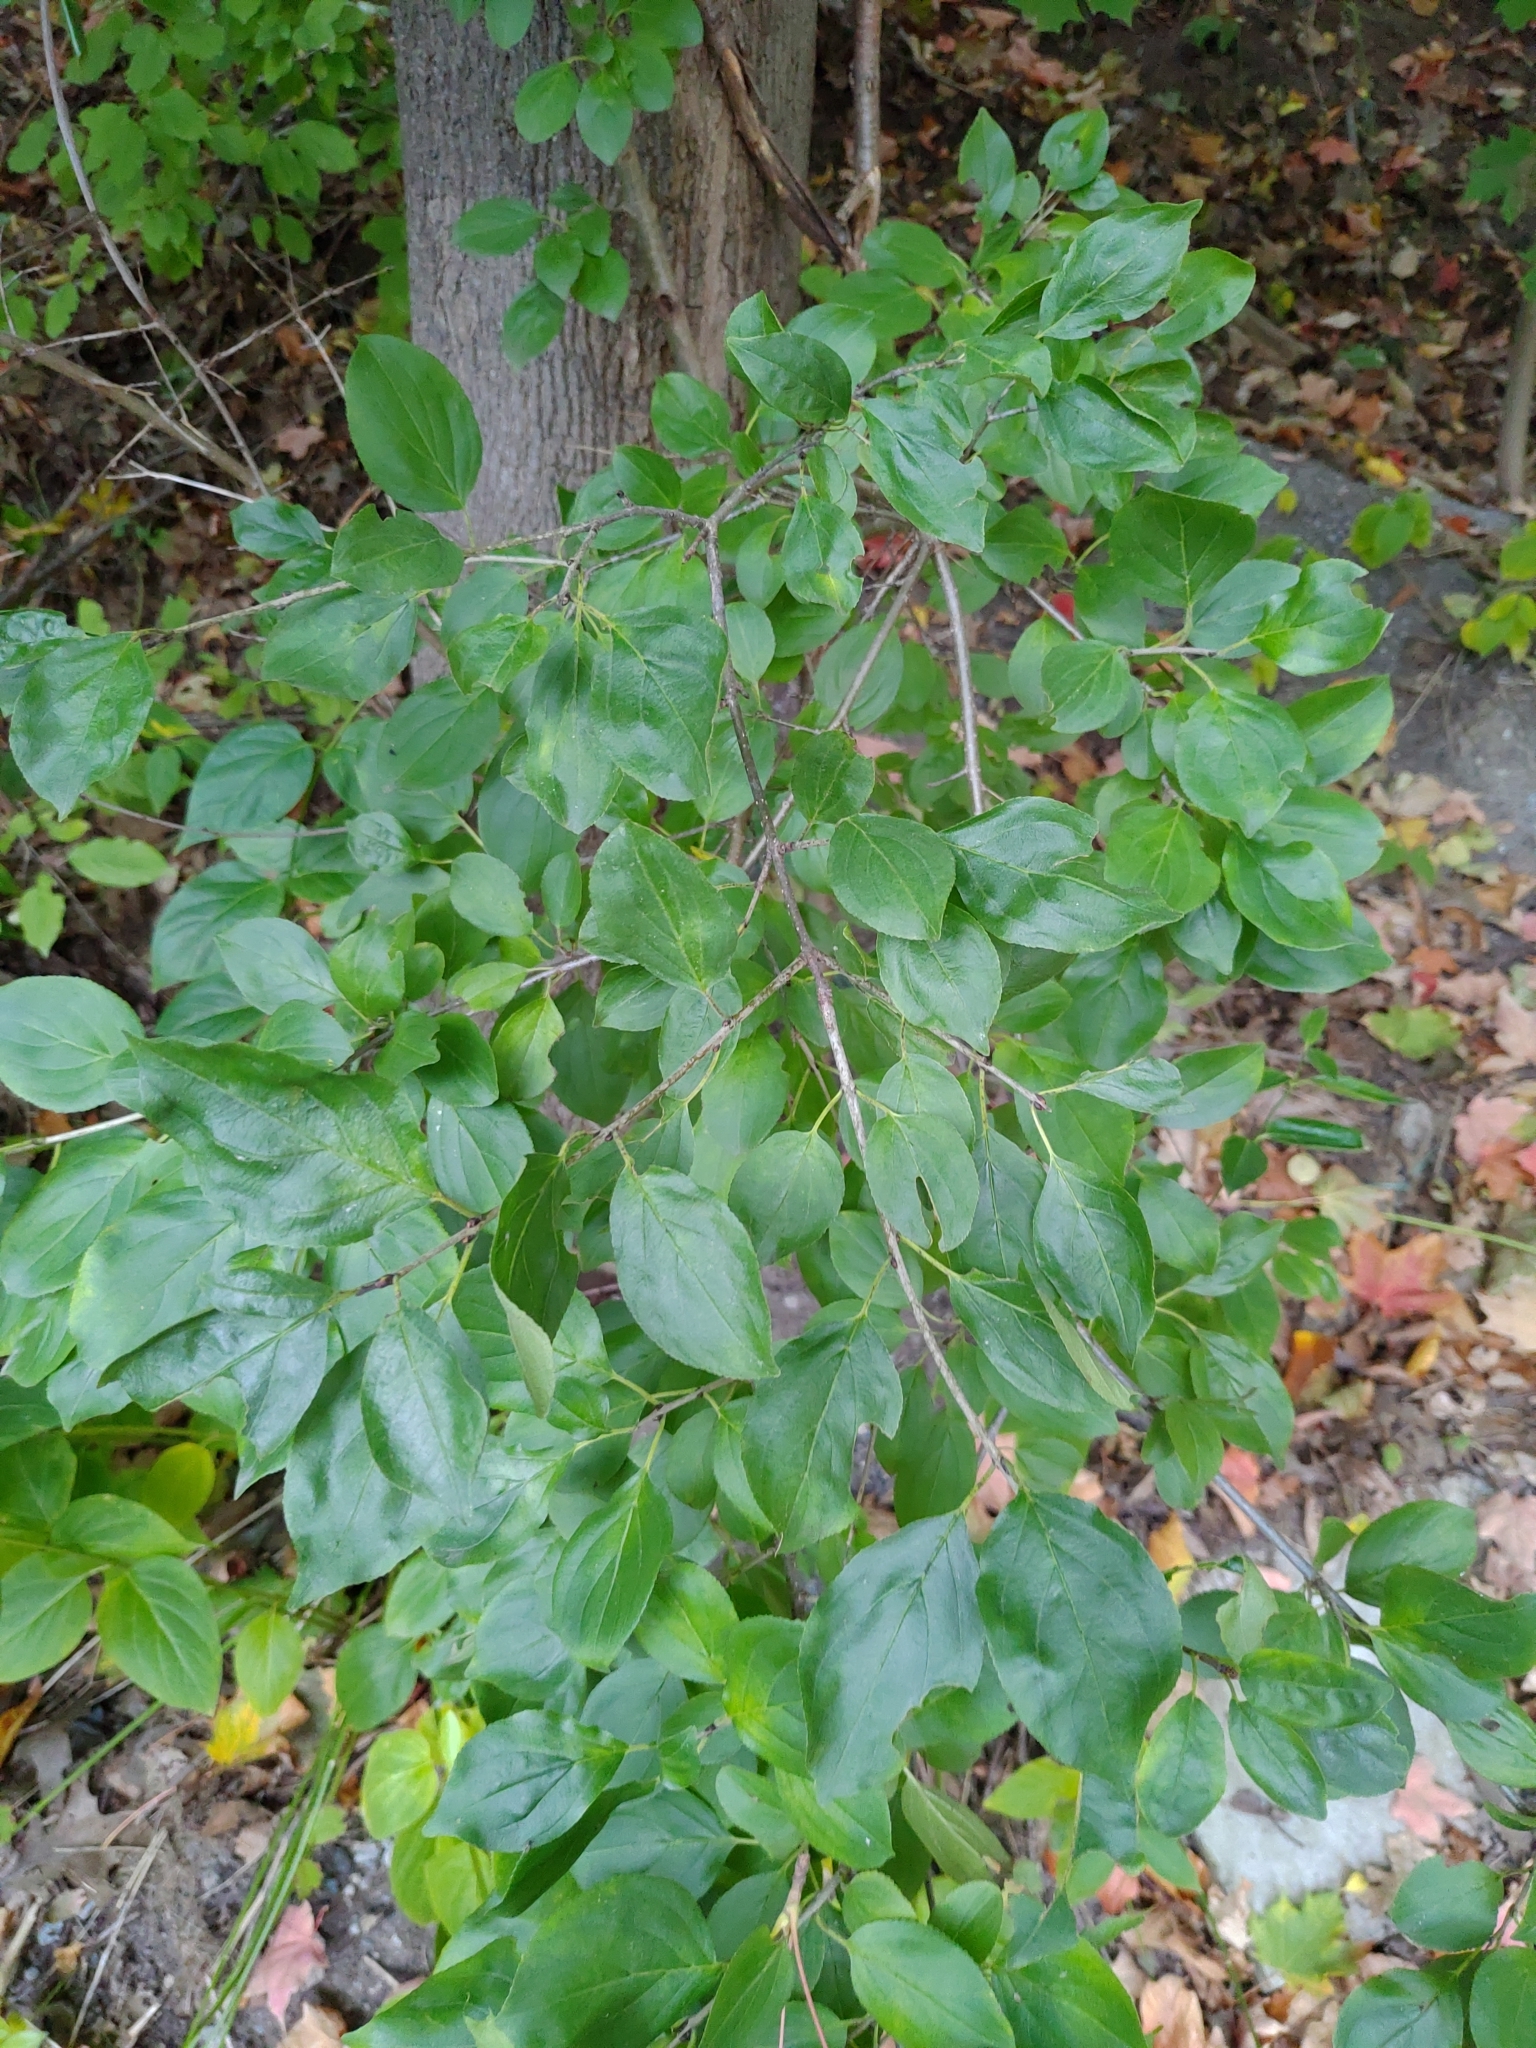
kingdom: Plantae
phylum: Tracheophyta
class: Magnoliopsida
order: Rosales
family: Rhamnaceae
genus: Rhamnus
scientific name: Rhamnus cathartica
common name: Common buckthorn
